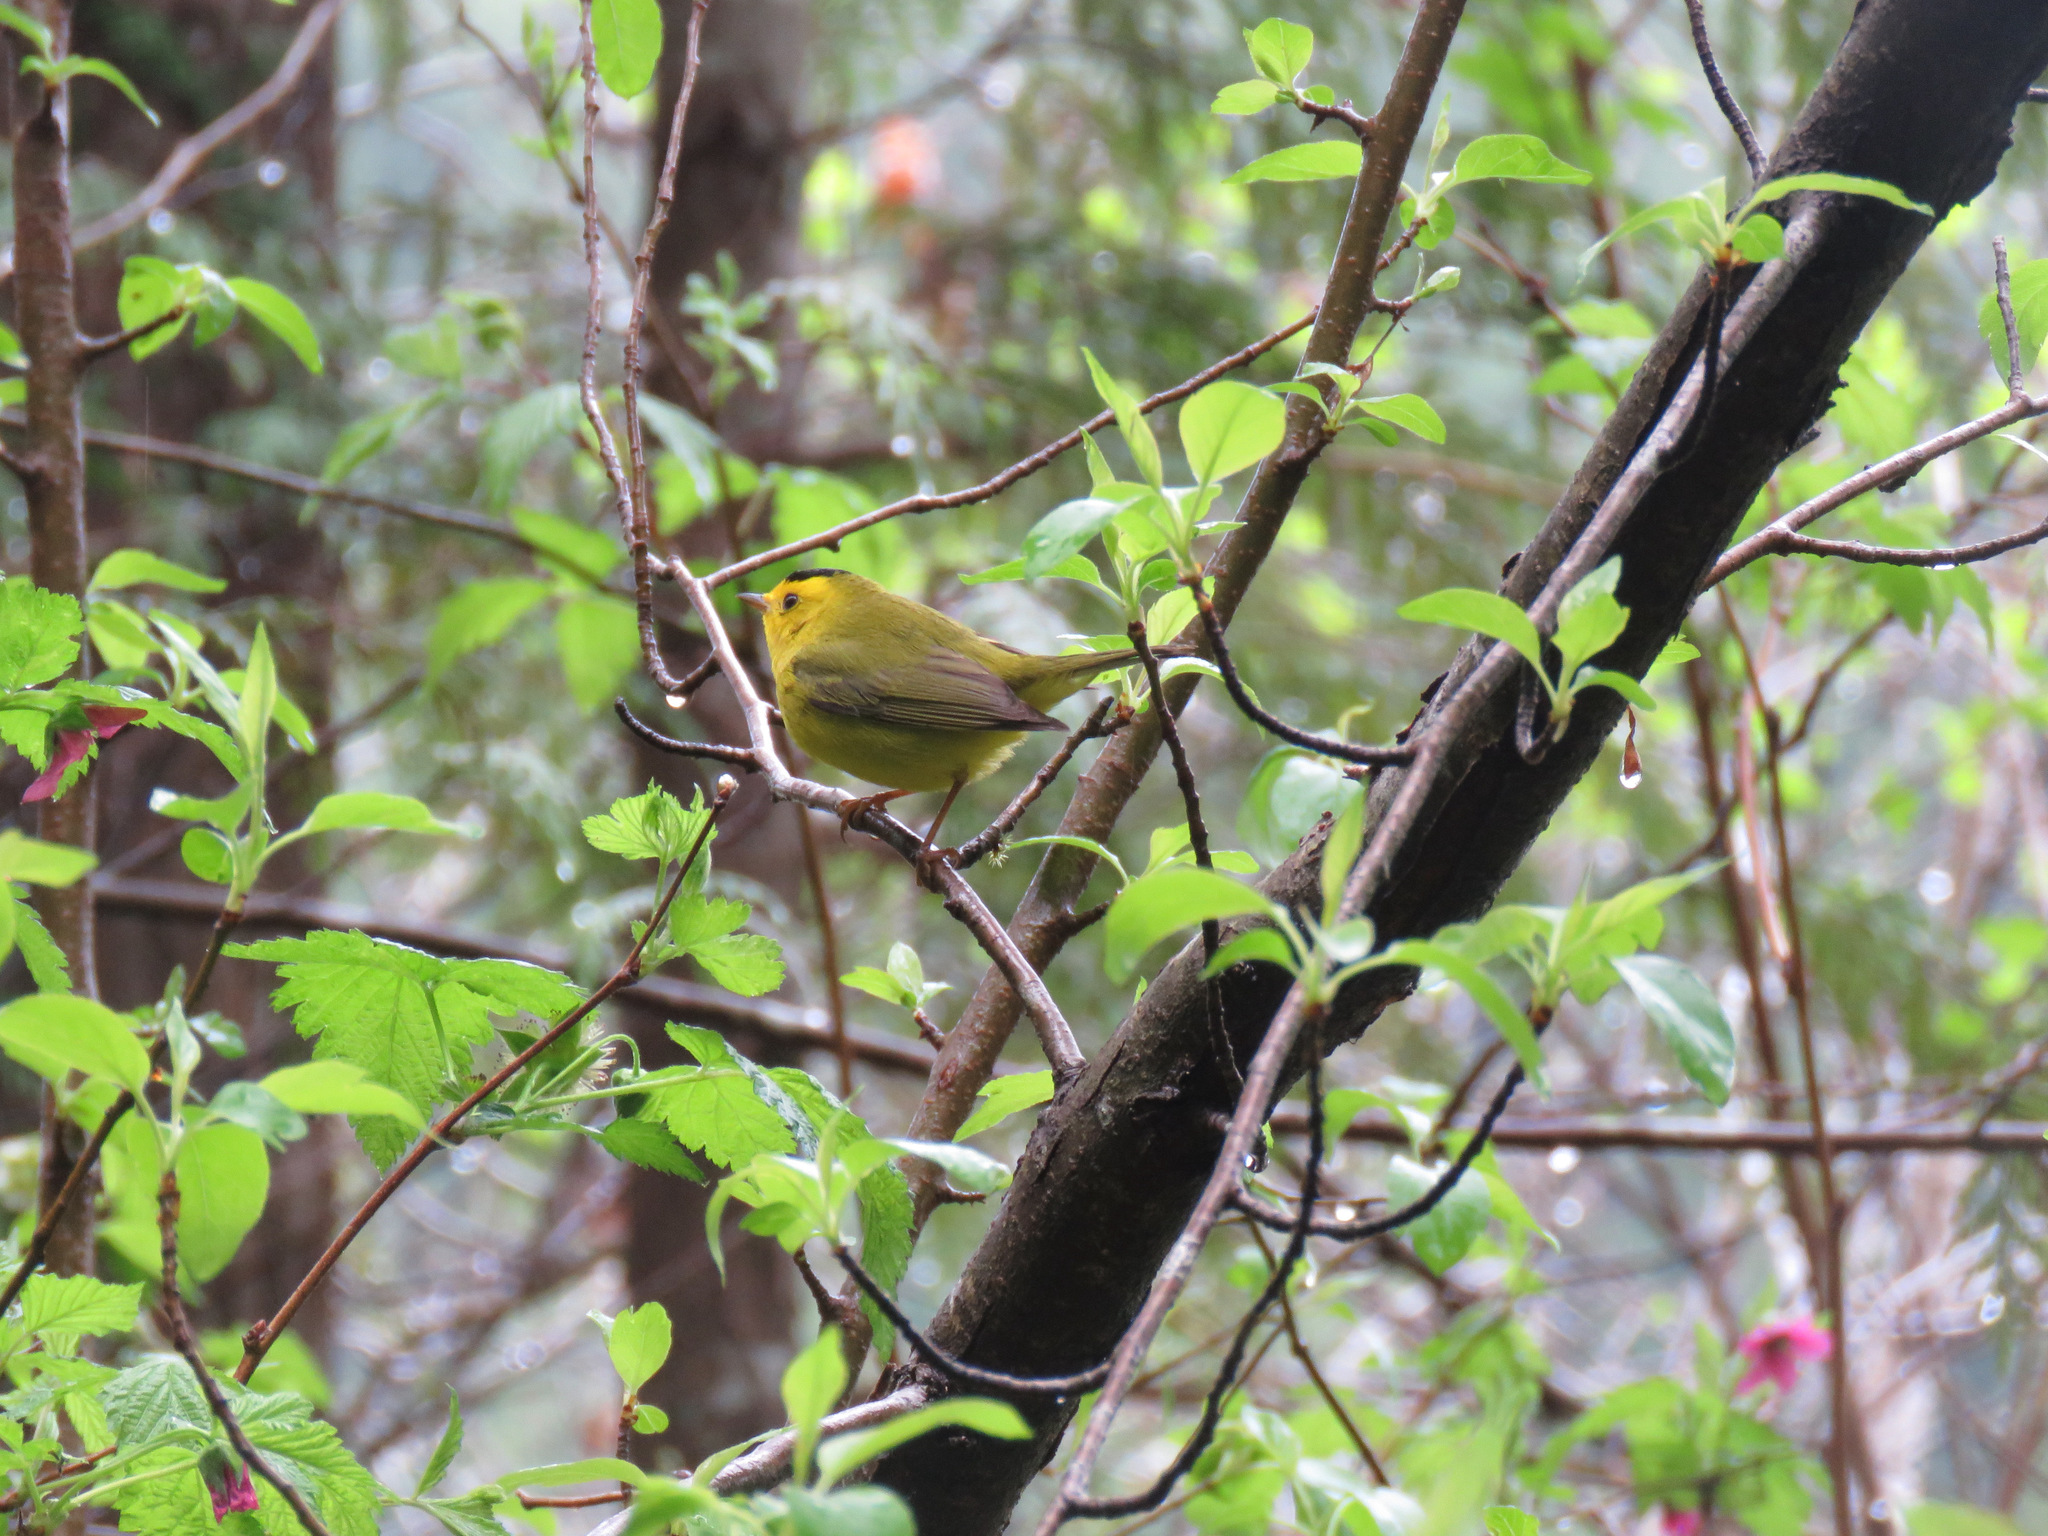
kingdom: Animalia
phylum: Chordata
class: Aves
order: Passeriformes
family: Parulidae
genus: Cardellina
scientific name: Cardellina pusilla
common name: Wilson's warbler
